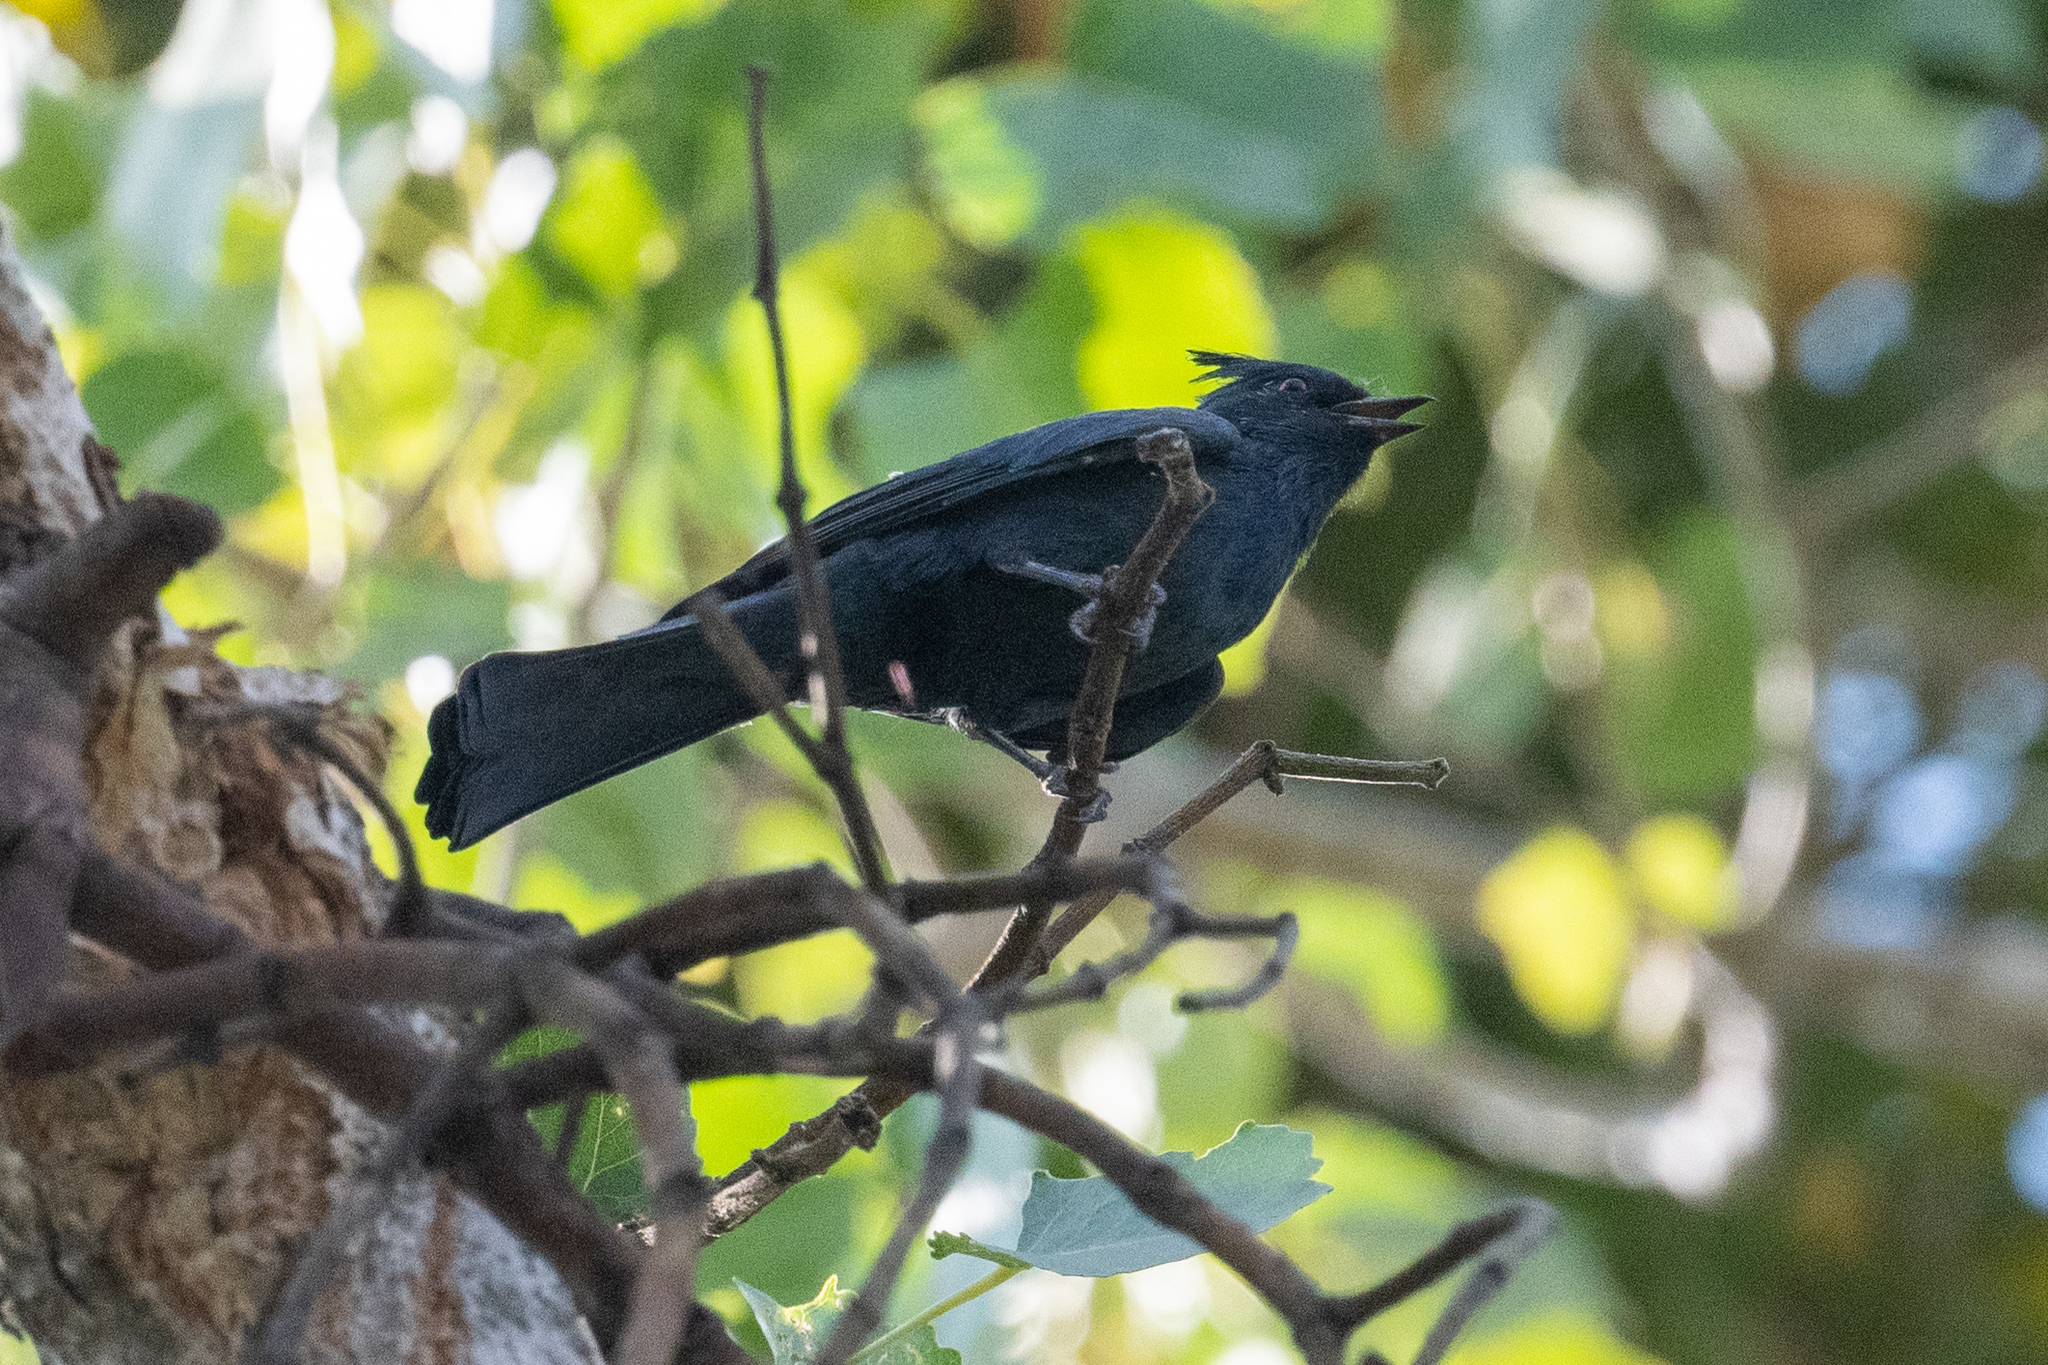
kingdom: Animalia
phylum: Chordata
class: Aves
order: Passeriformes
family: Ptilogonatidae
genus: Phainopepla
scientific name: Phainopepla nitens
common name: Phainopepla
